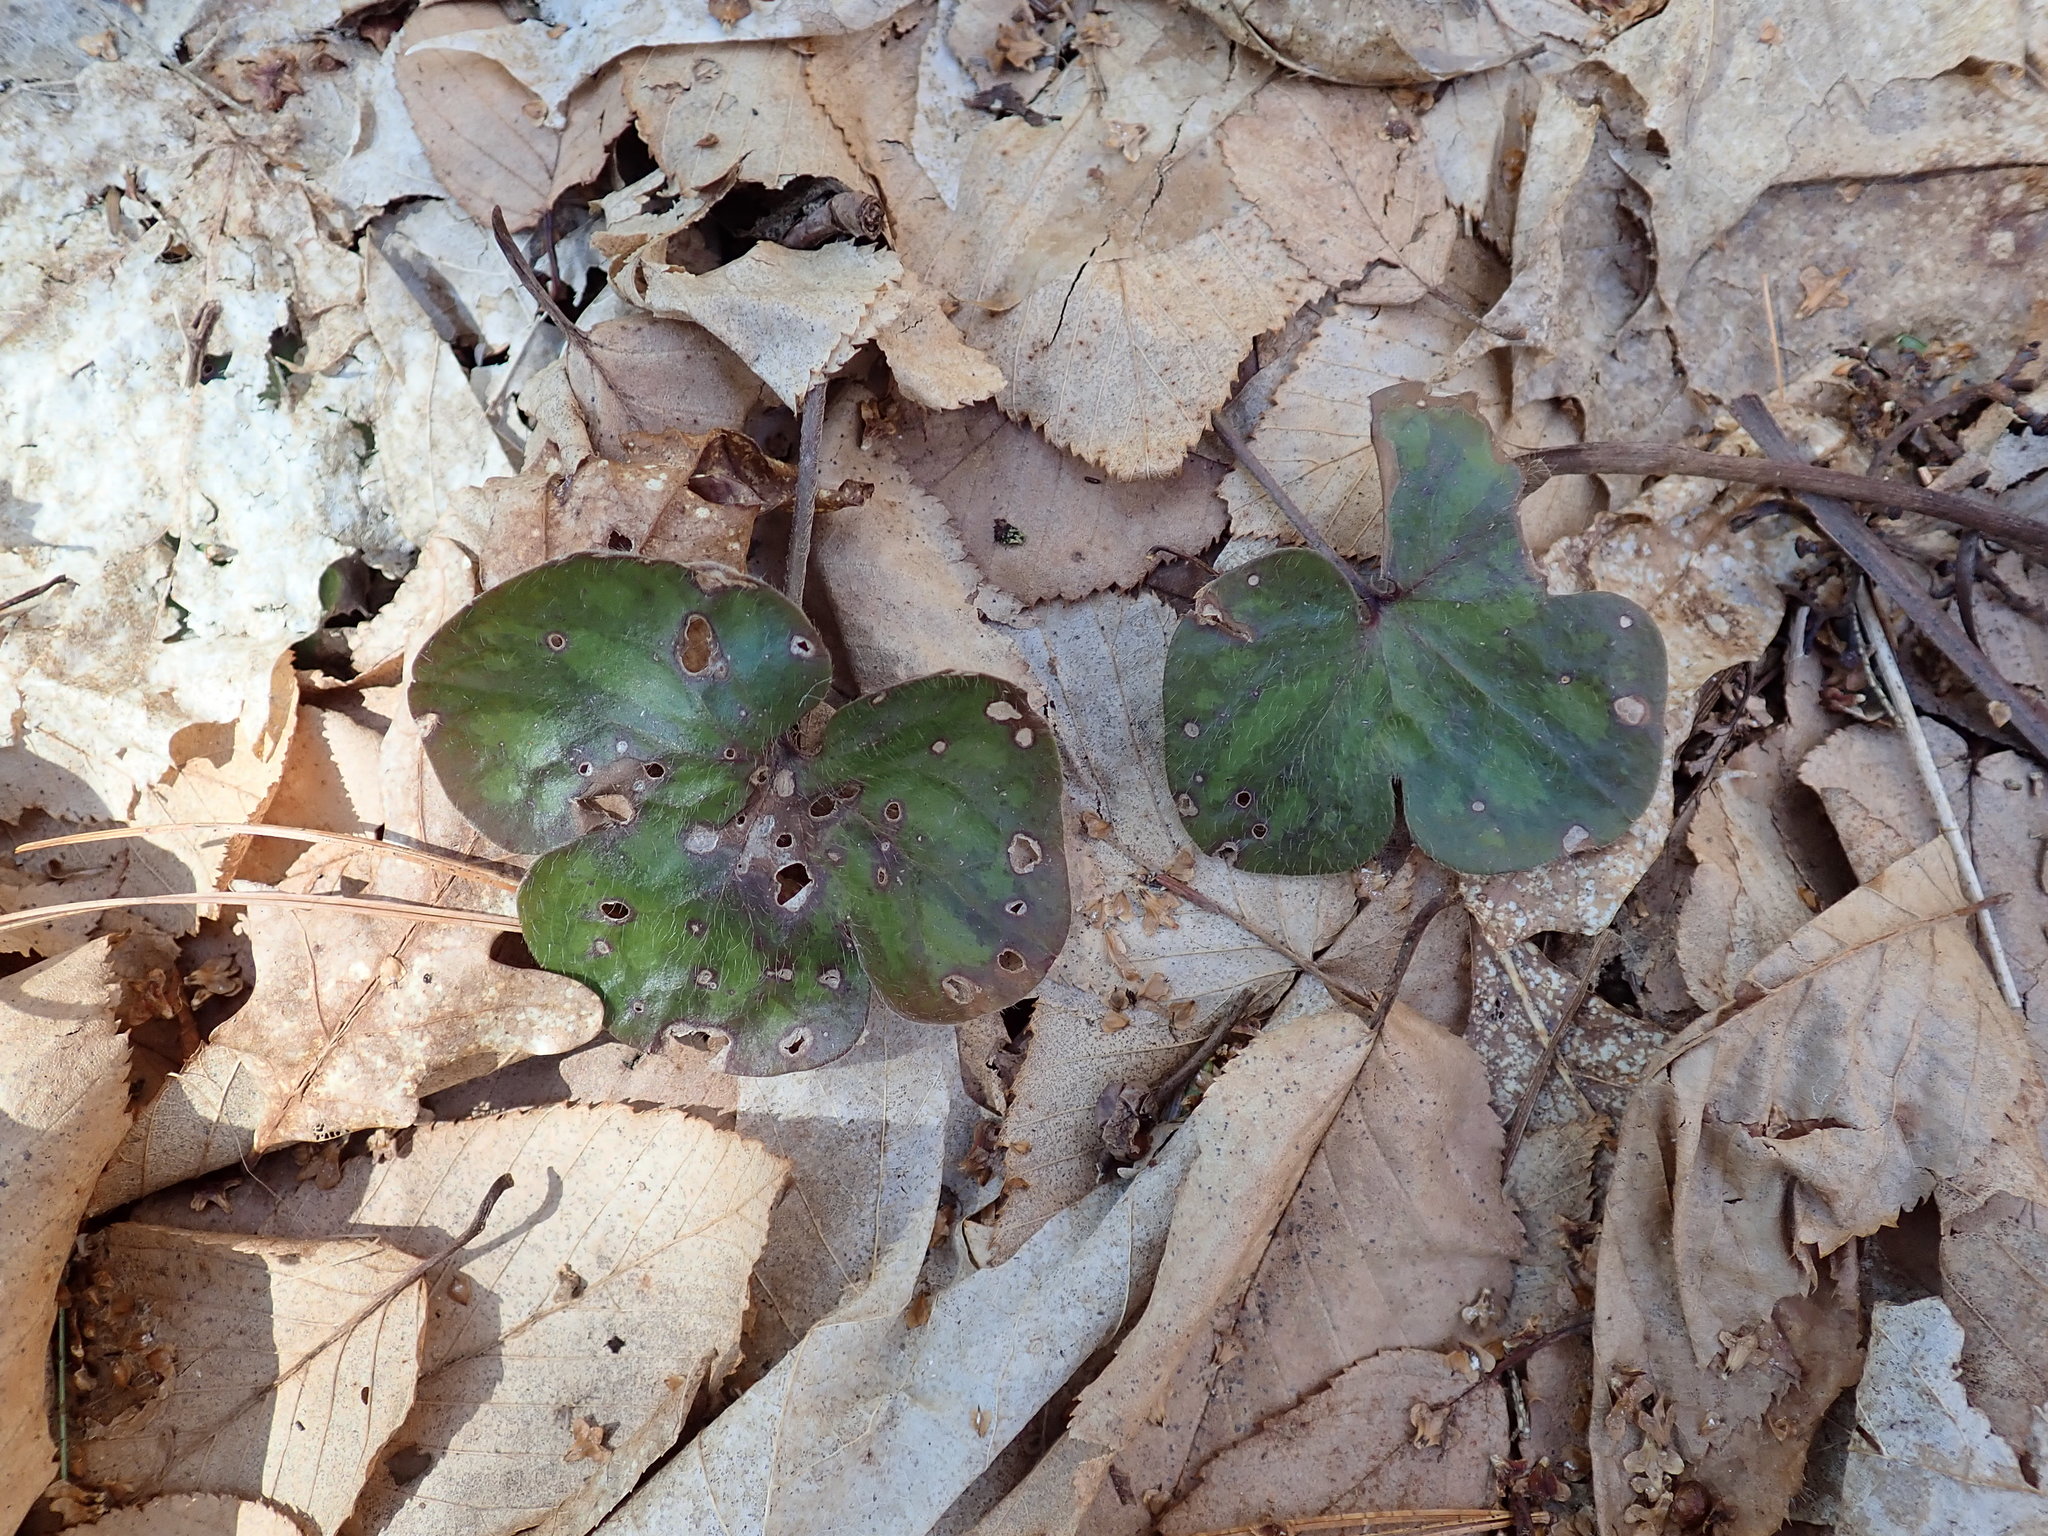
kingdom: Plantae
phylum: Tracheophyta
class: Magnoliopsida
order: Ranunculales
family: Ranunculaceae
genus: Hepatica
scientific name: Hepatica americana
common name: American hepatica
